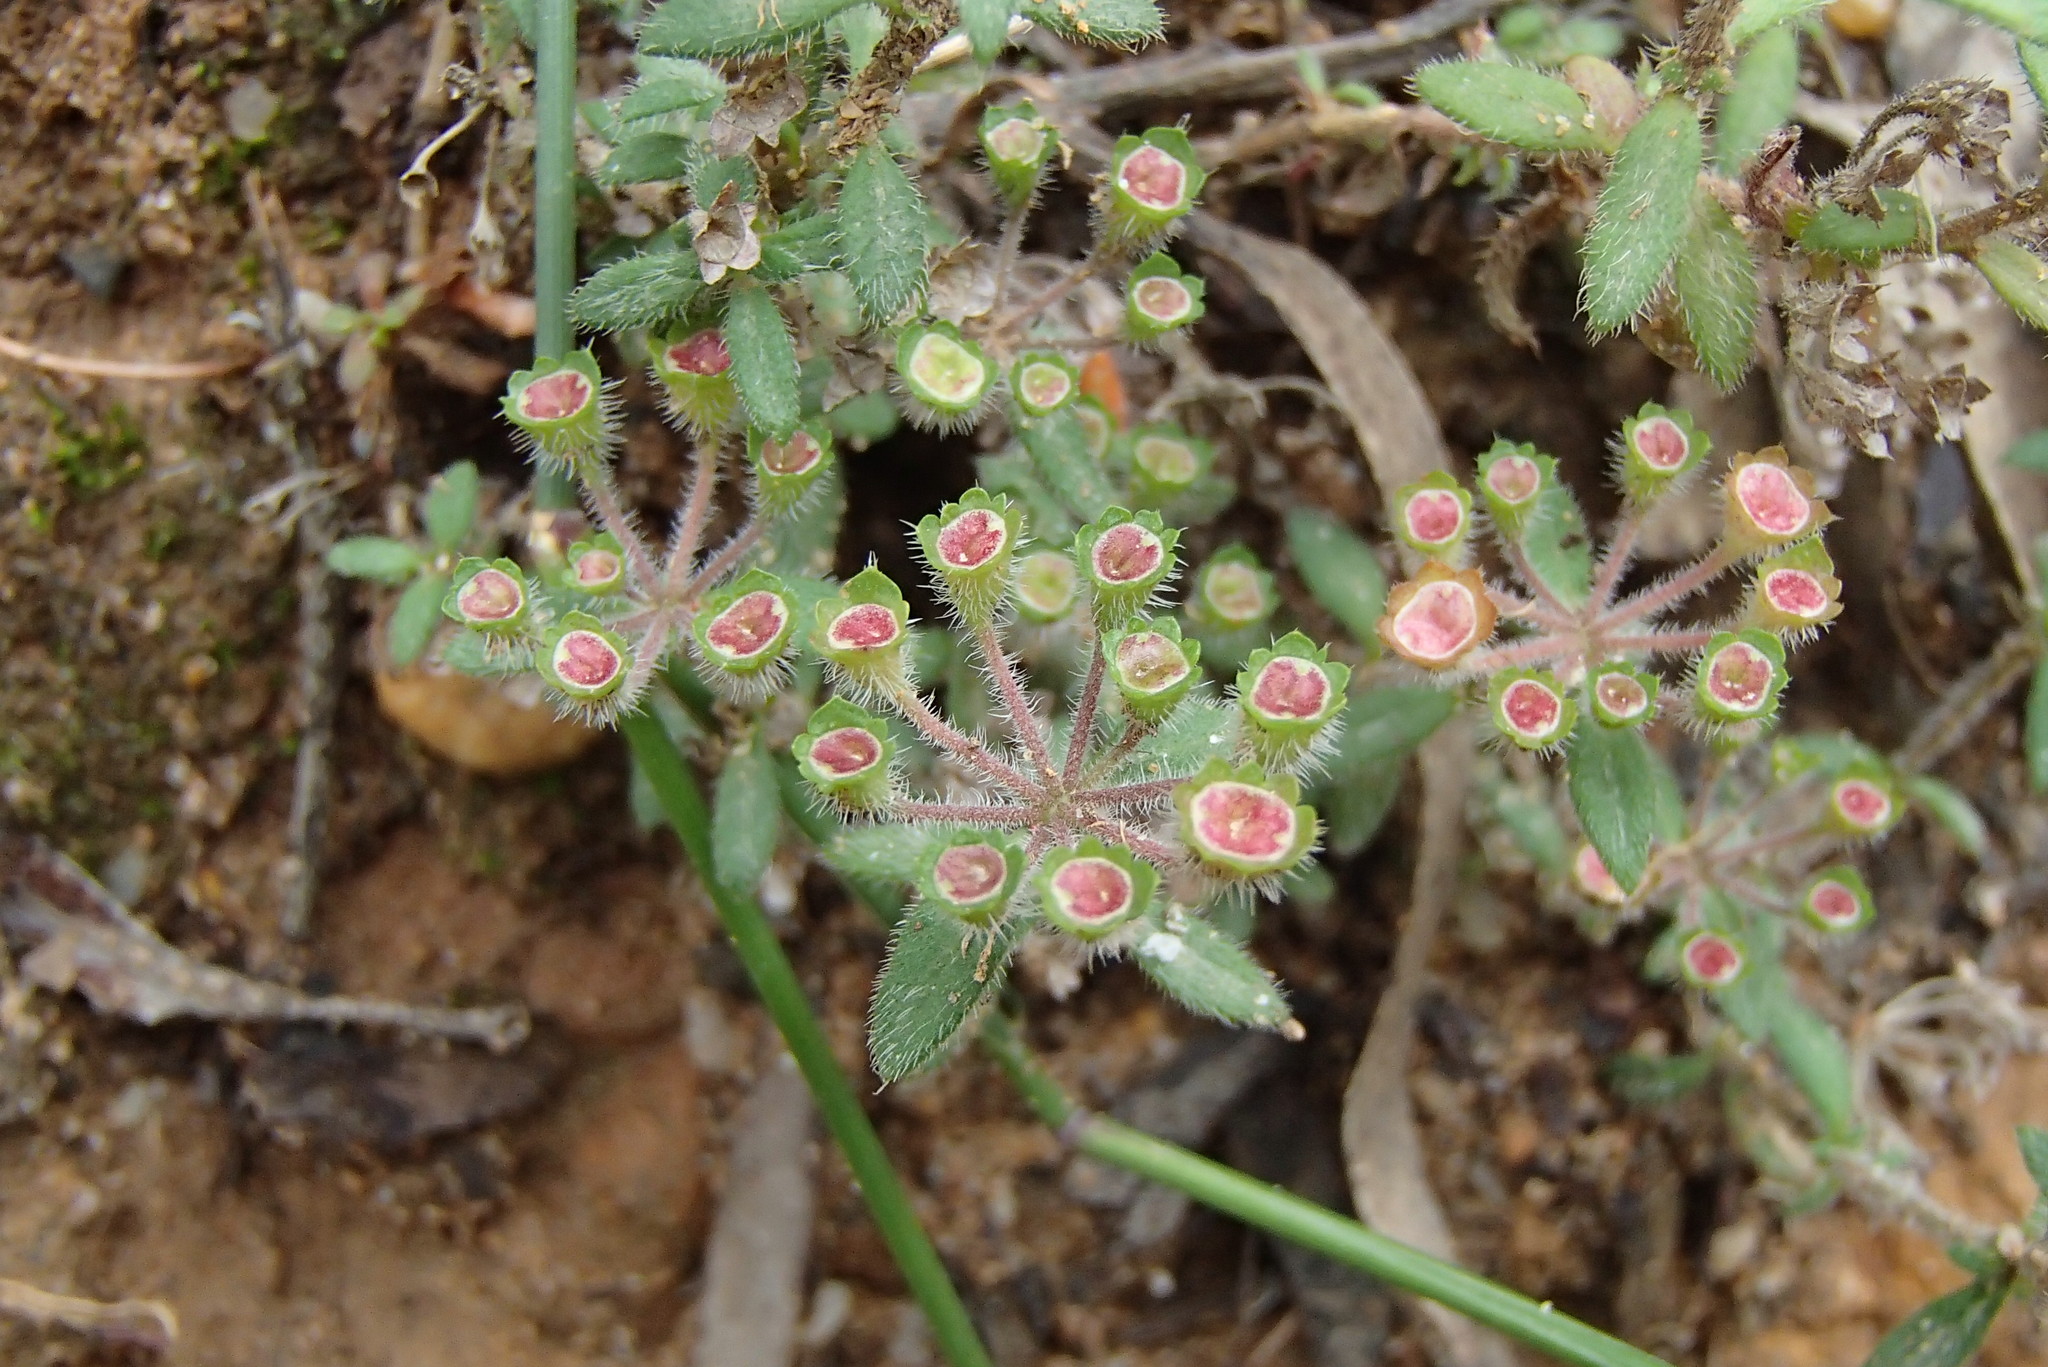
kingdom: Plantae
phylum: Tracheophyta
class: Magnoliopsida
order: Gentianales
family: Rubiaceae
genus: Pomax
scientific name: Pomax umbellata
